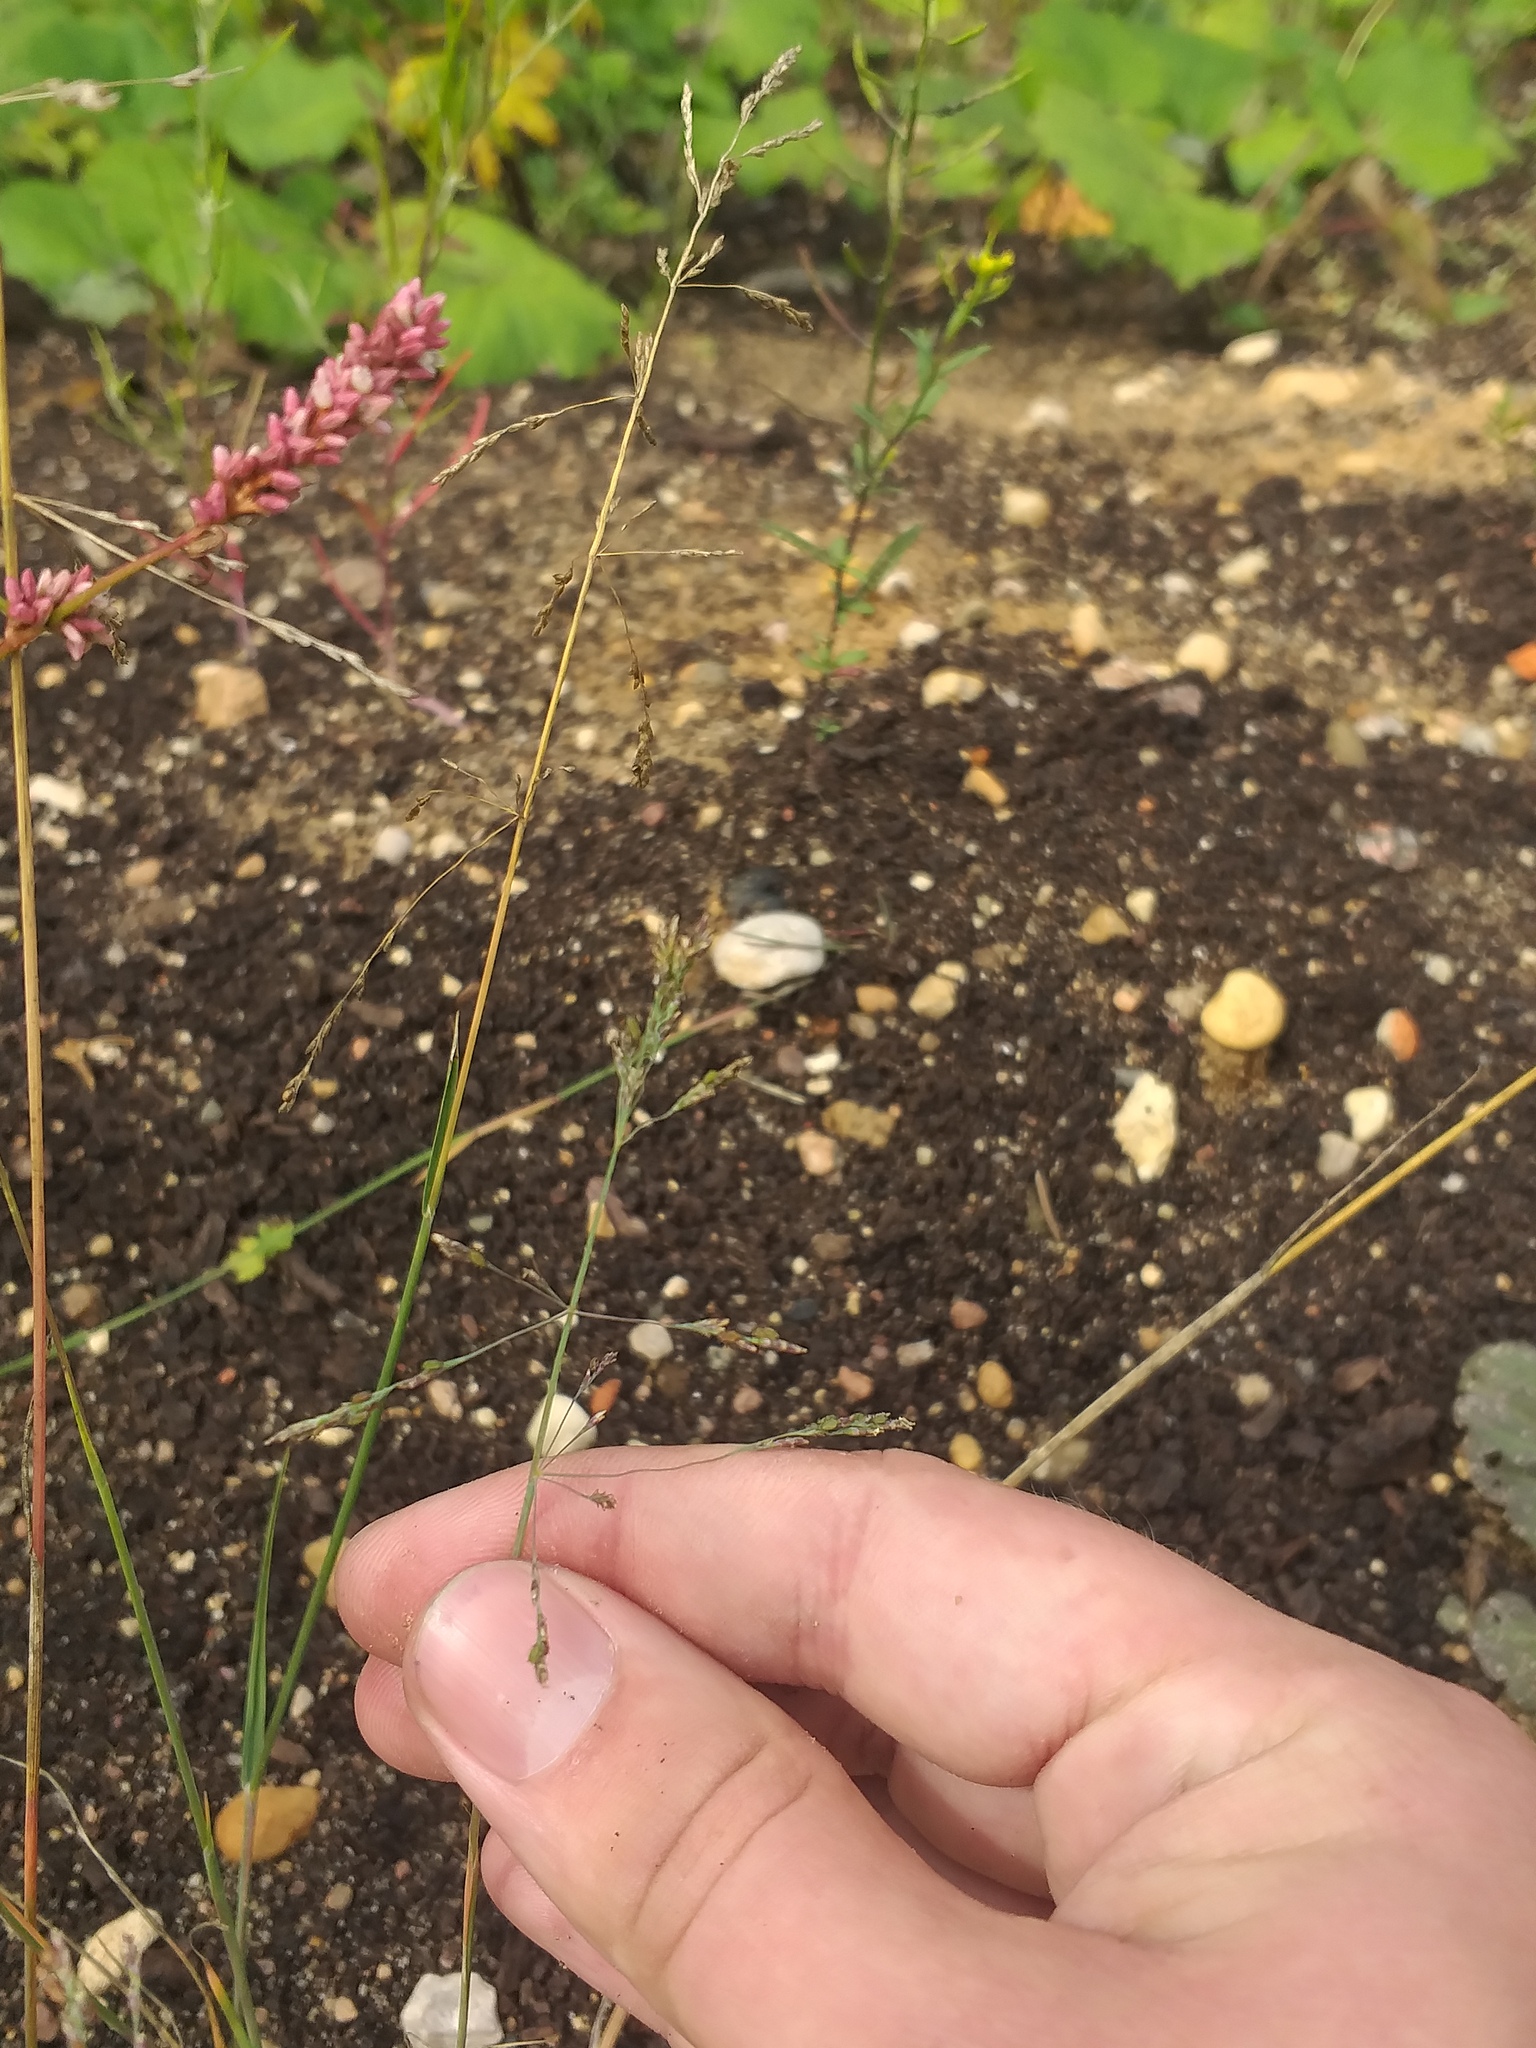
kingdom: Plantae
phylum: Tracheophyta
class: Liliopsida
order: Poales
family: Poaceae
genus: Puccinellia
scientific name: Puccinellia distans
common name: Weeping alkaligrass
